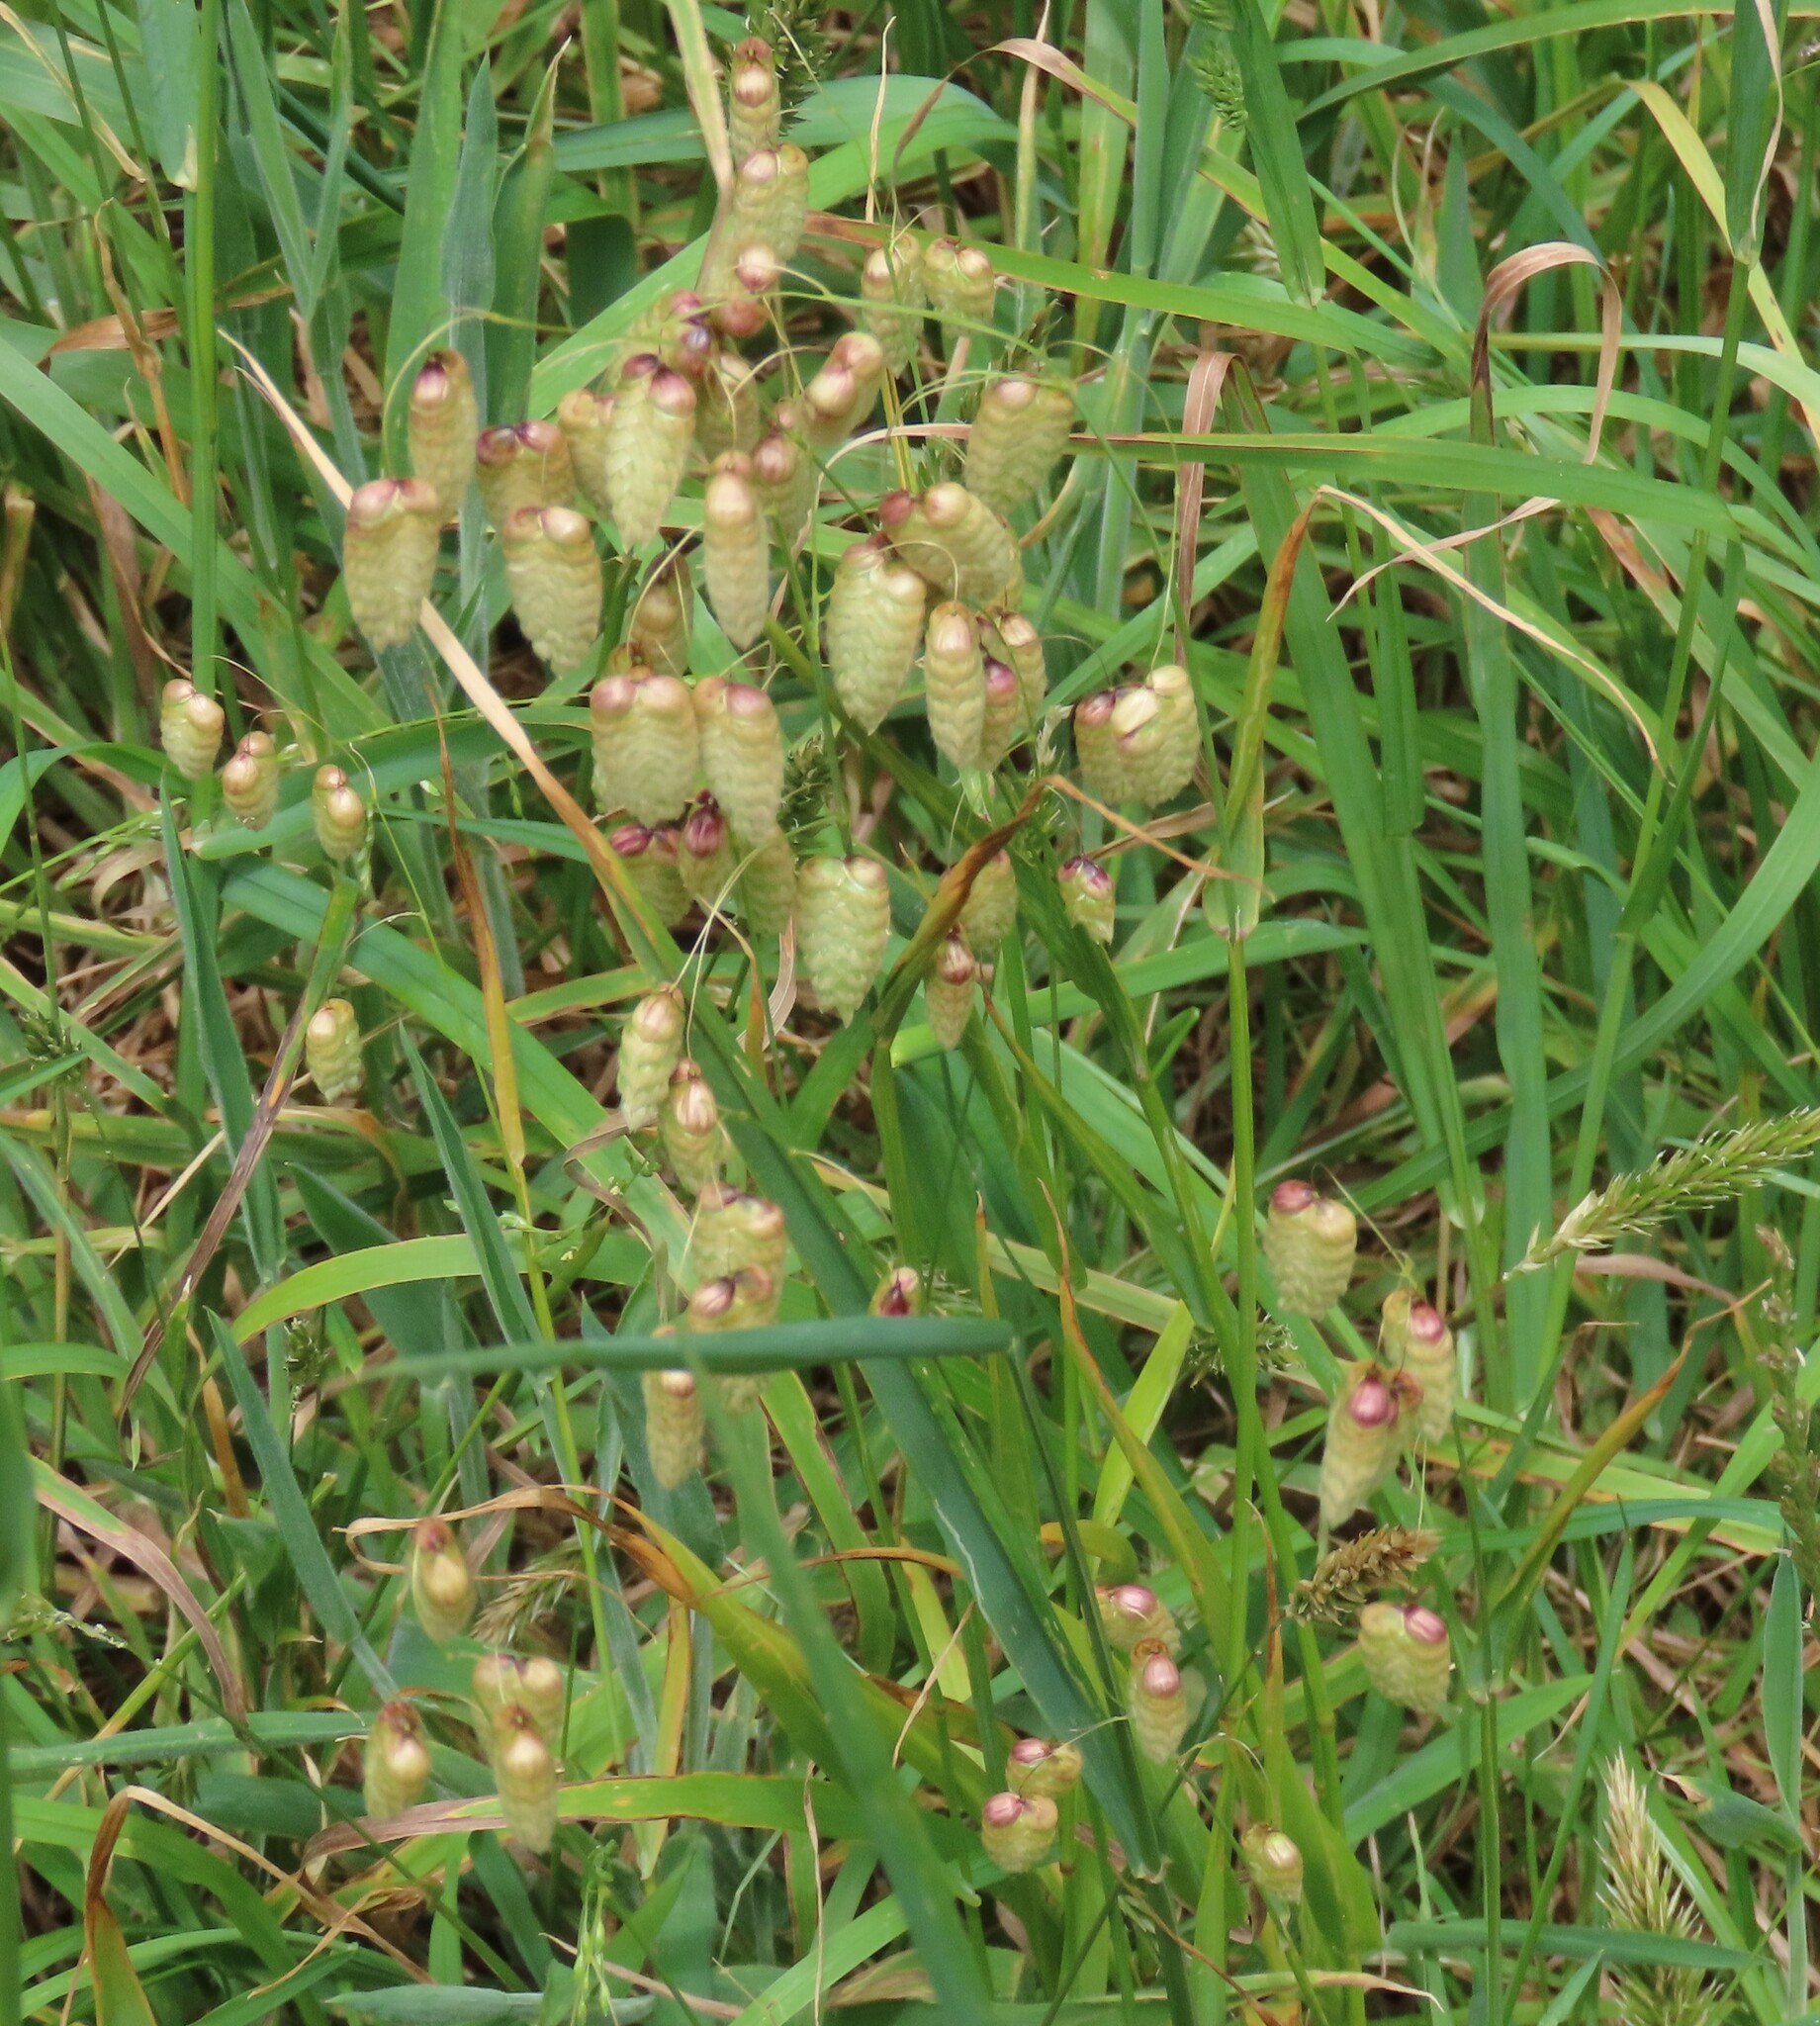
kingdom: Plantae
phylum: Tracheophyta
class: Liliopsida
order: Poales
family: Poaceae
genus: Briza
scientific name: Briza maxima
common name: Big quakinggrass
